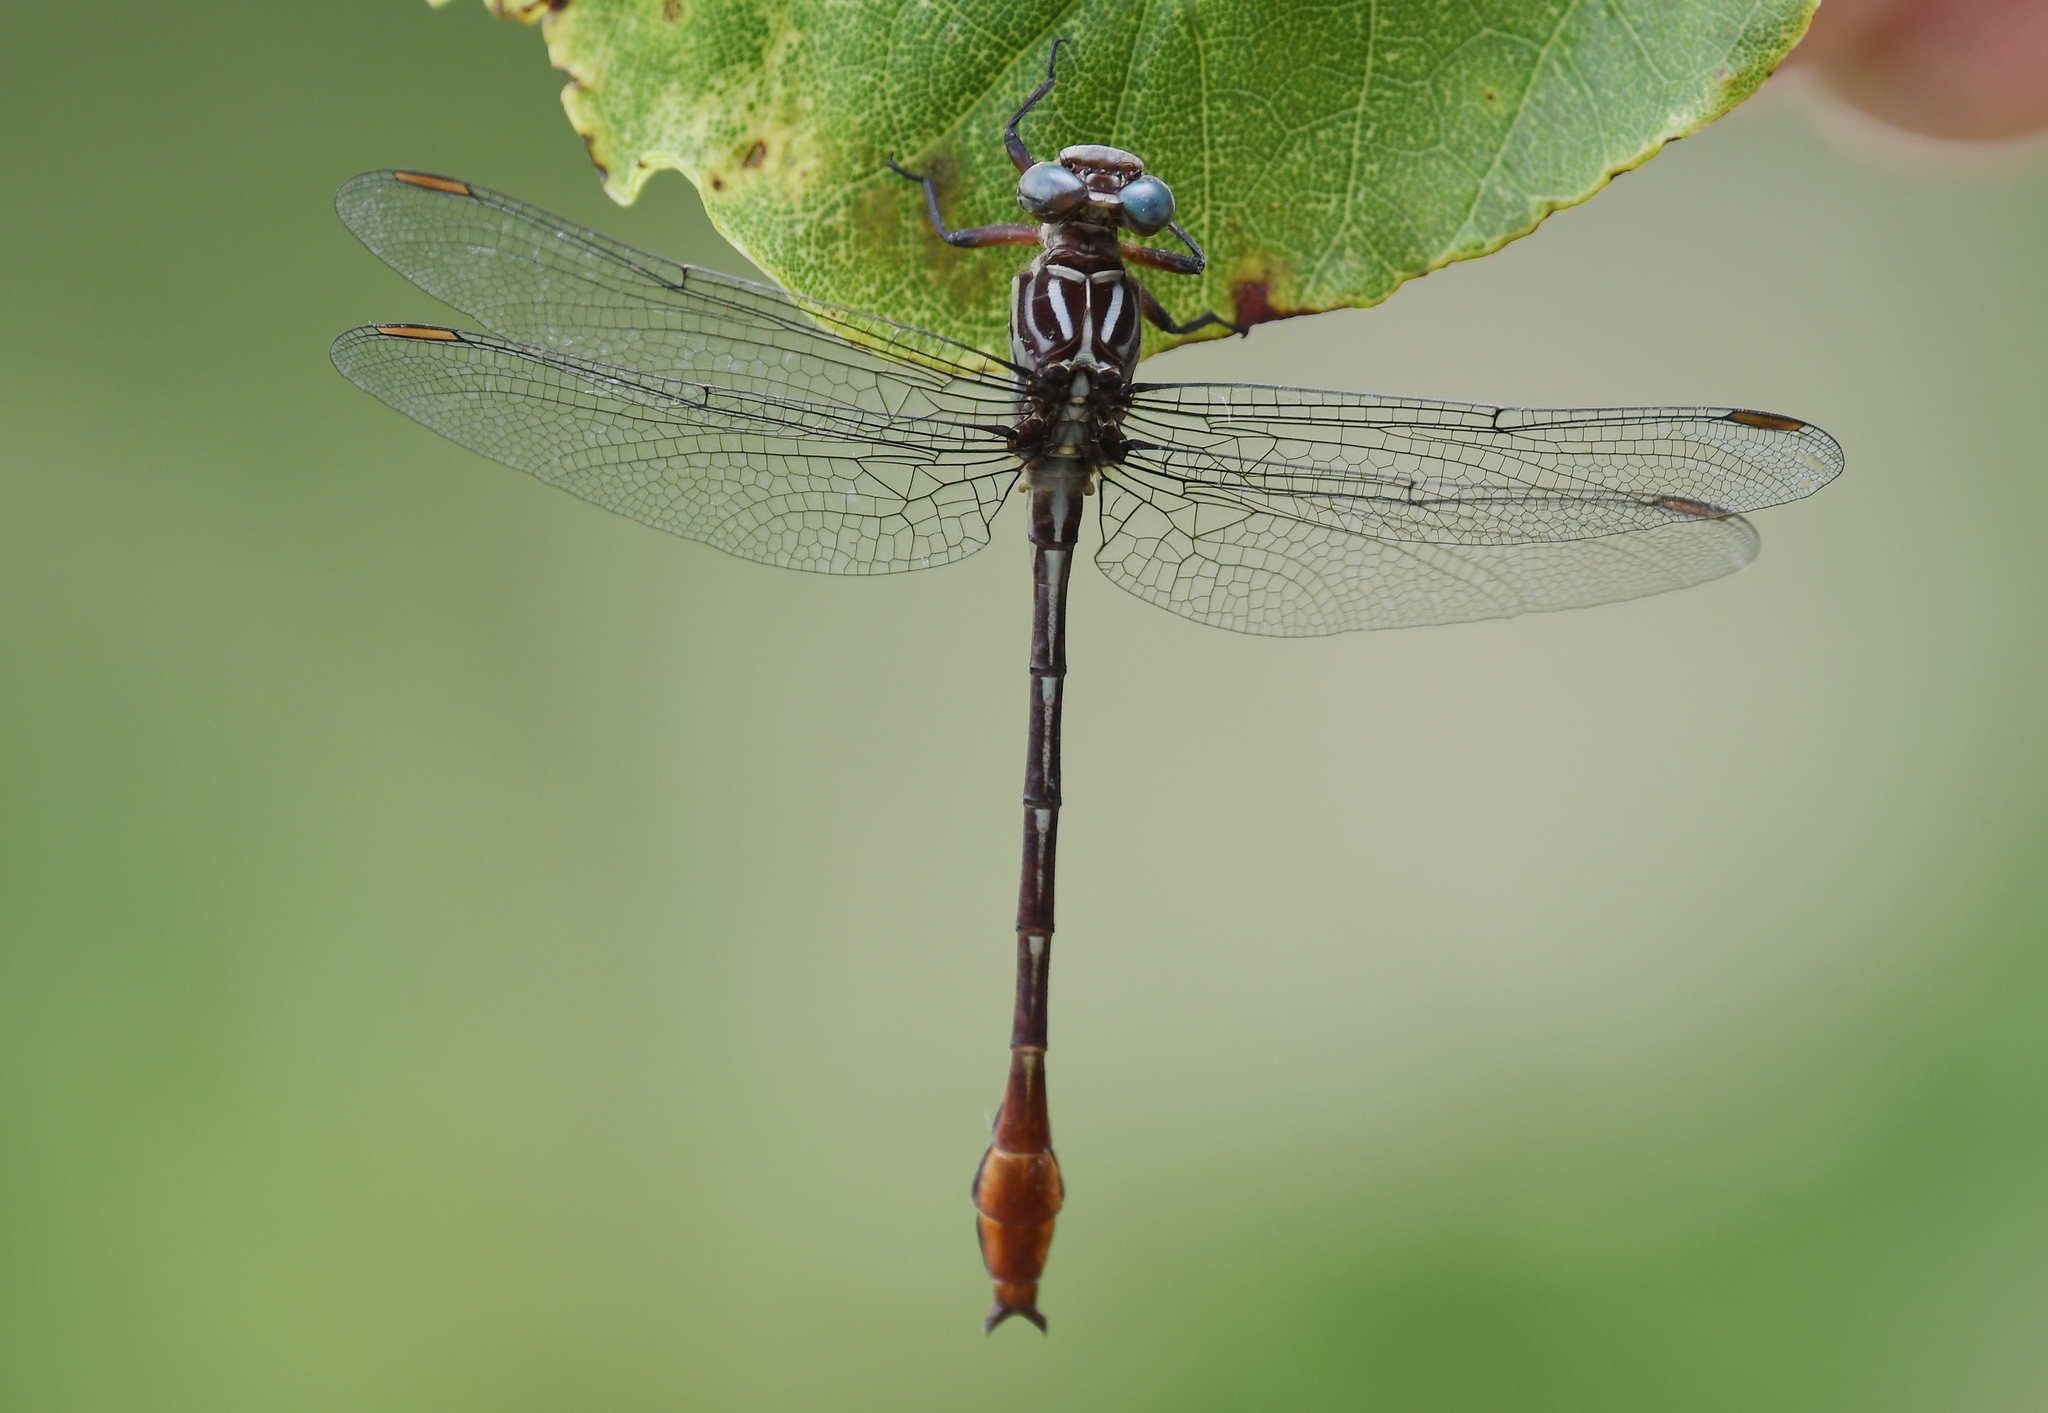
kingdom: Animalia
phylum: Arthropoda
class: Insecta
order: Odonata
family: Gomphidae
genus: Stylurus
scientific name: Stylurus plagiatus
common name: Russet-tipped clubtail
